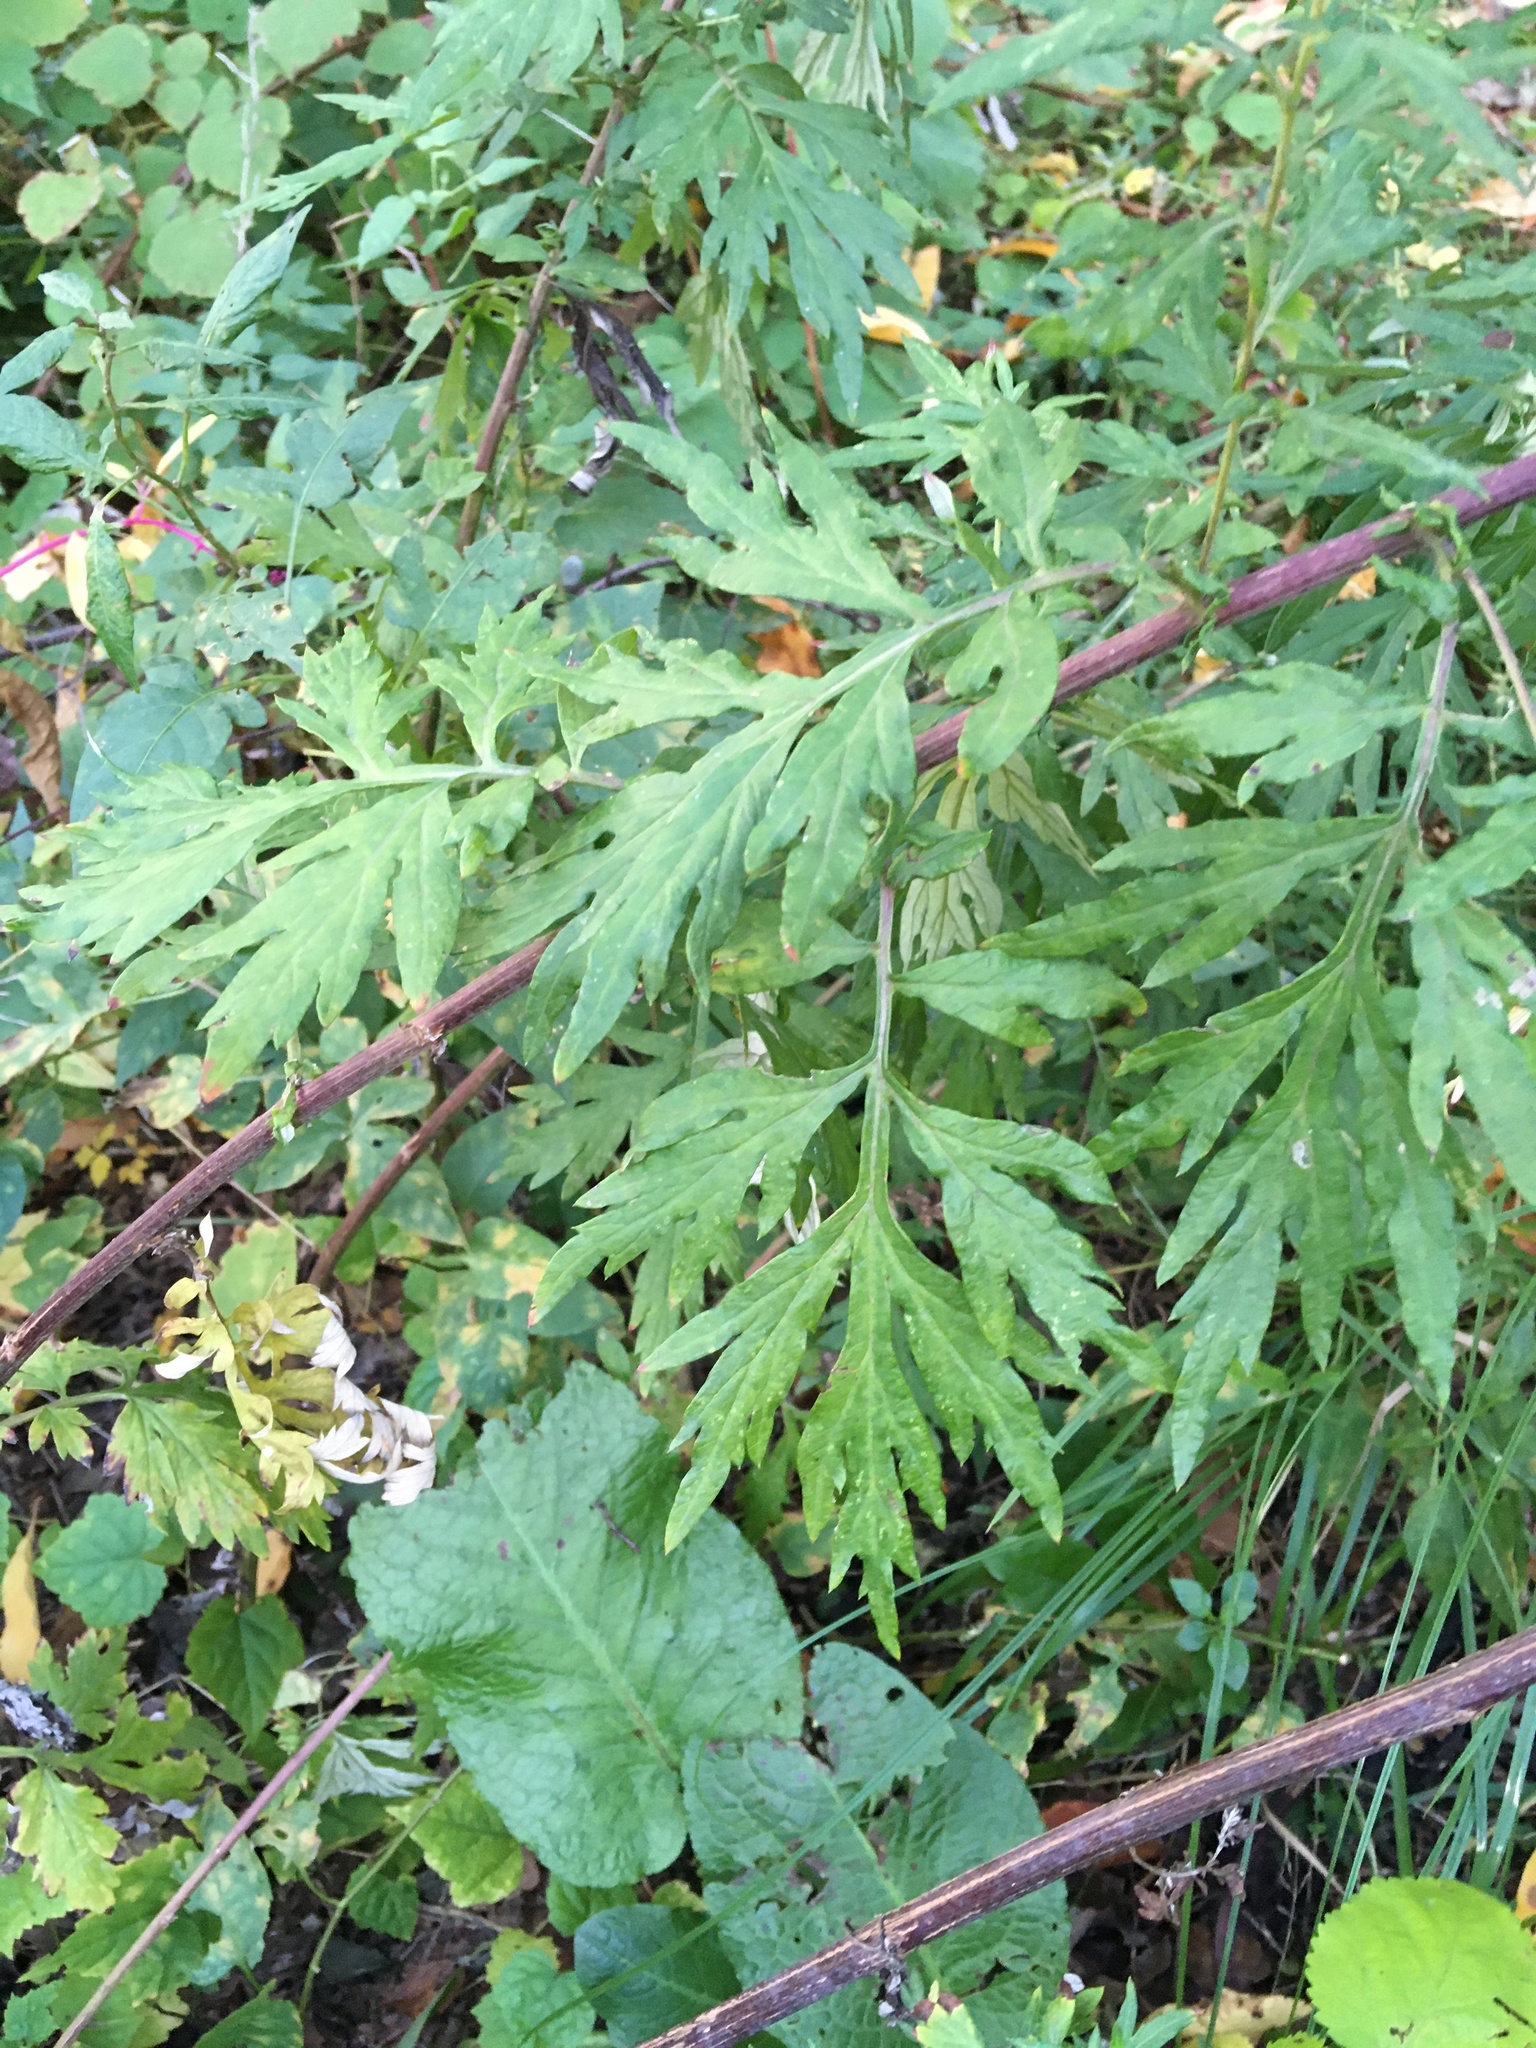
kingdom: Plantae
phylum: Tracheophyta
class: Magnoliopsida
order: Asterales
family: Asteraceae
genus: Artemisia
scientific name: Artemisia vulgaris
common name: Mugwort
